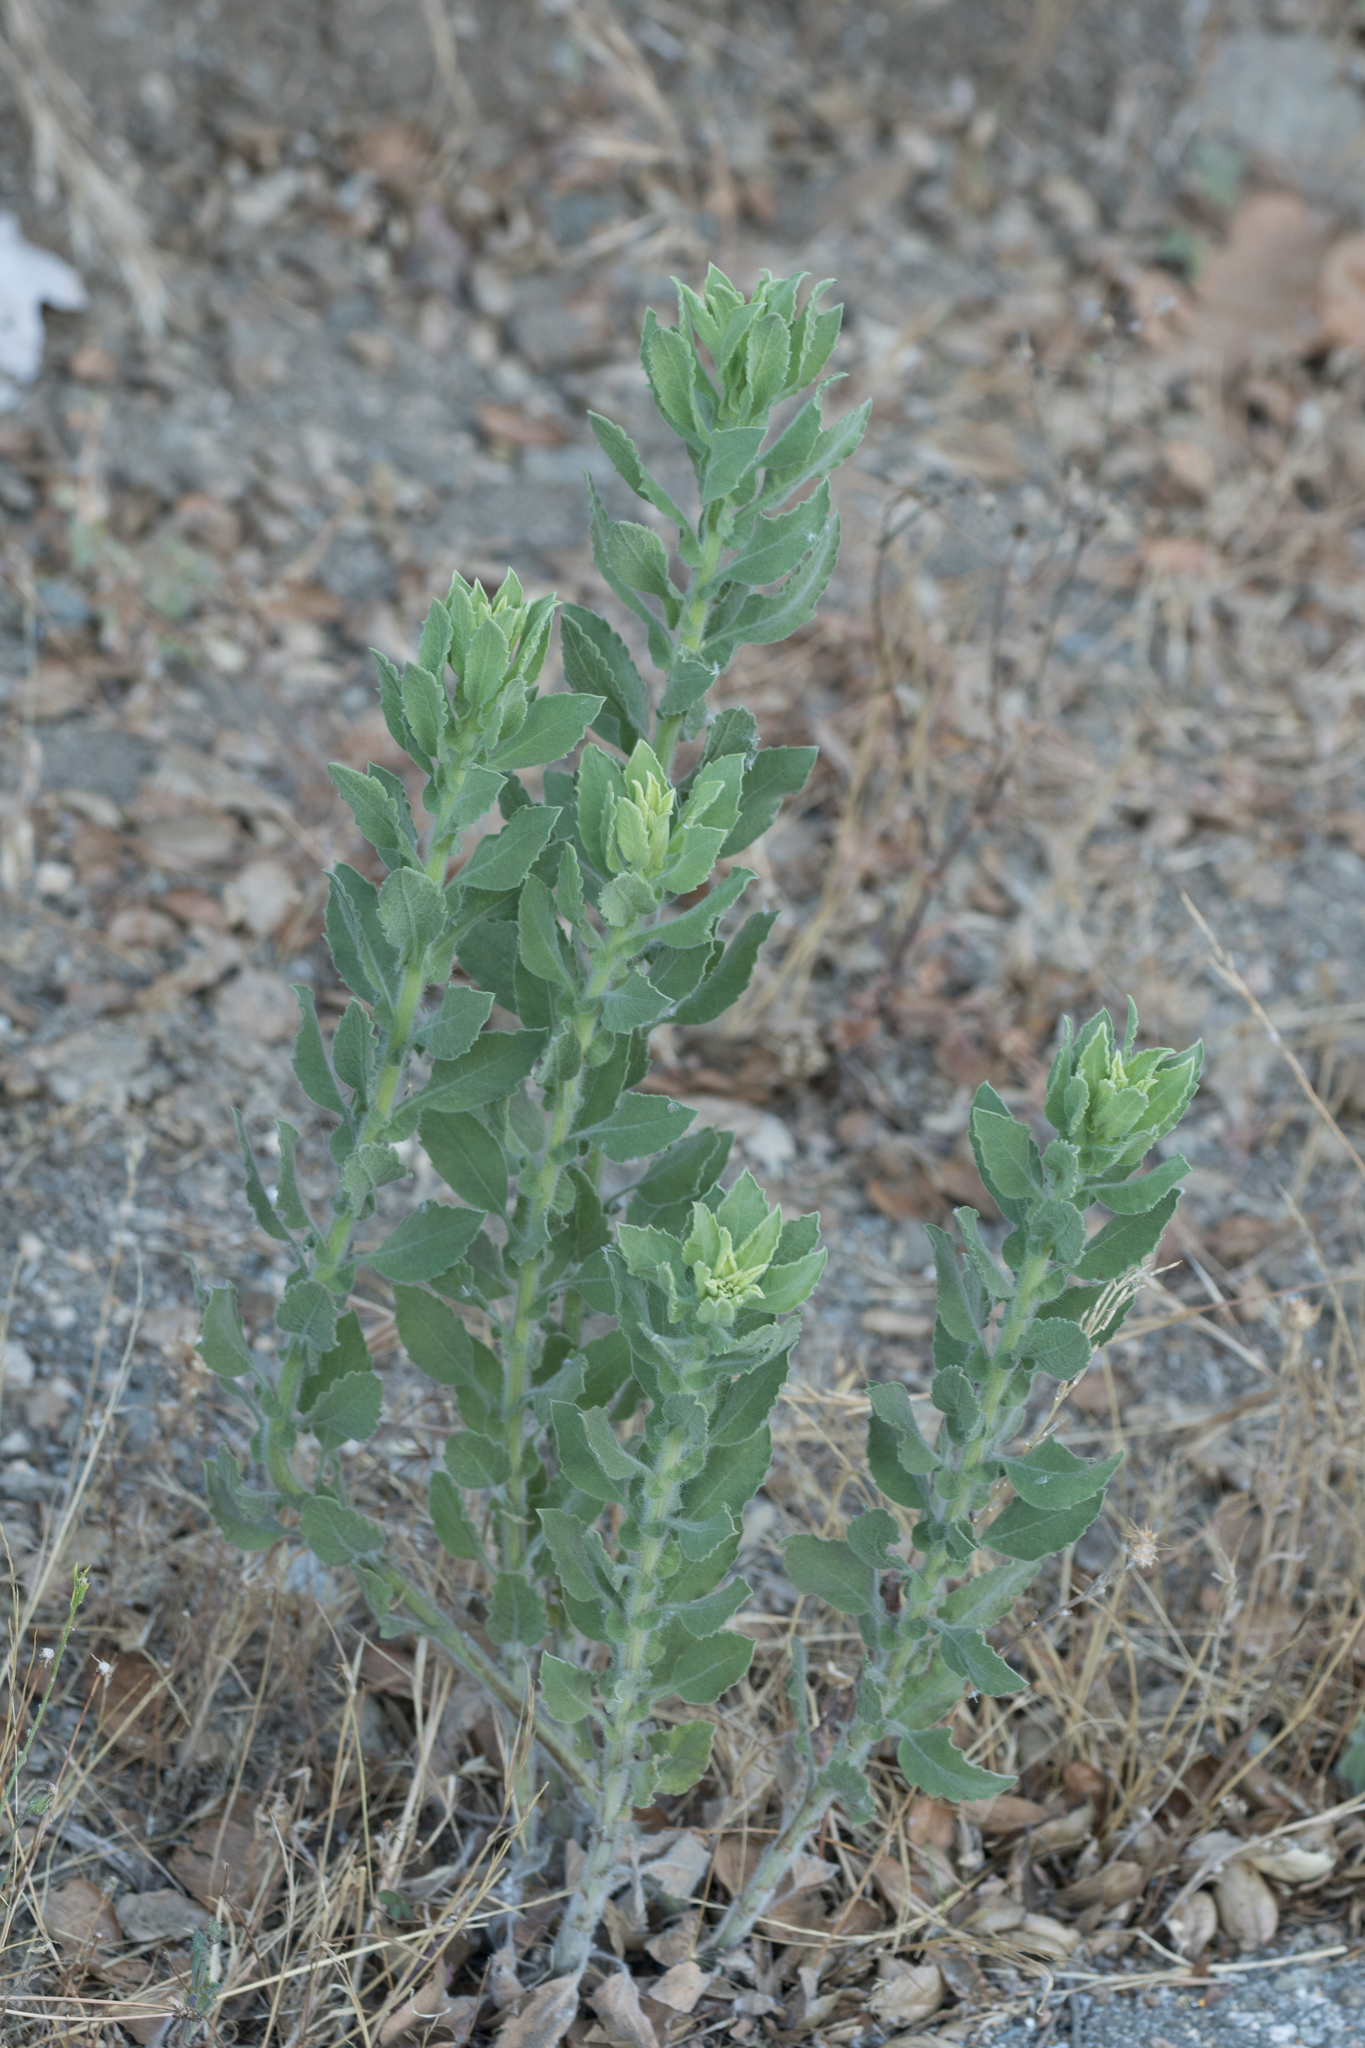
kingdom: Plantae
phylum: Tracheophyta
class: Magnoliopsida
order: Asterales
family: Asteraceae
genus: Heterotheca
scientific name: Heterotheca grandiflora
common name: Telegraphweed
